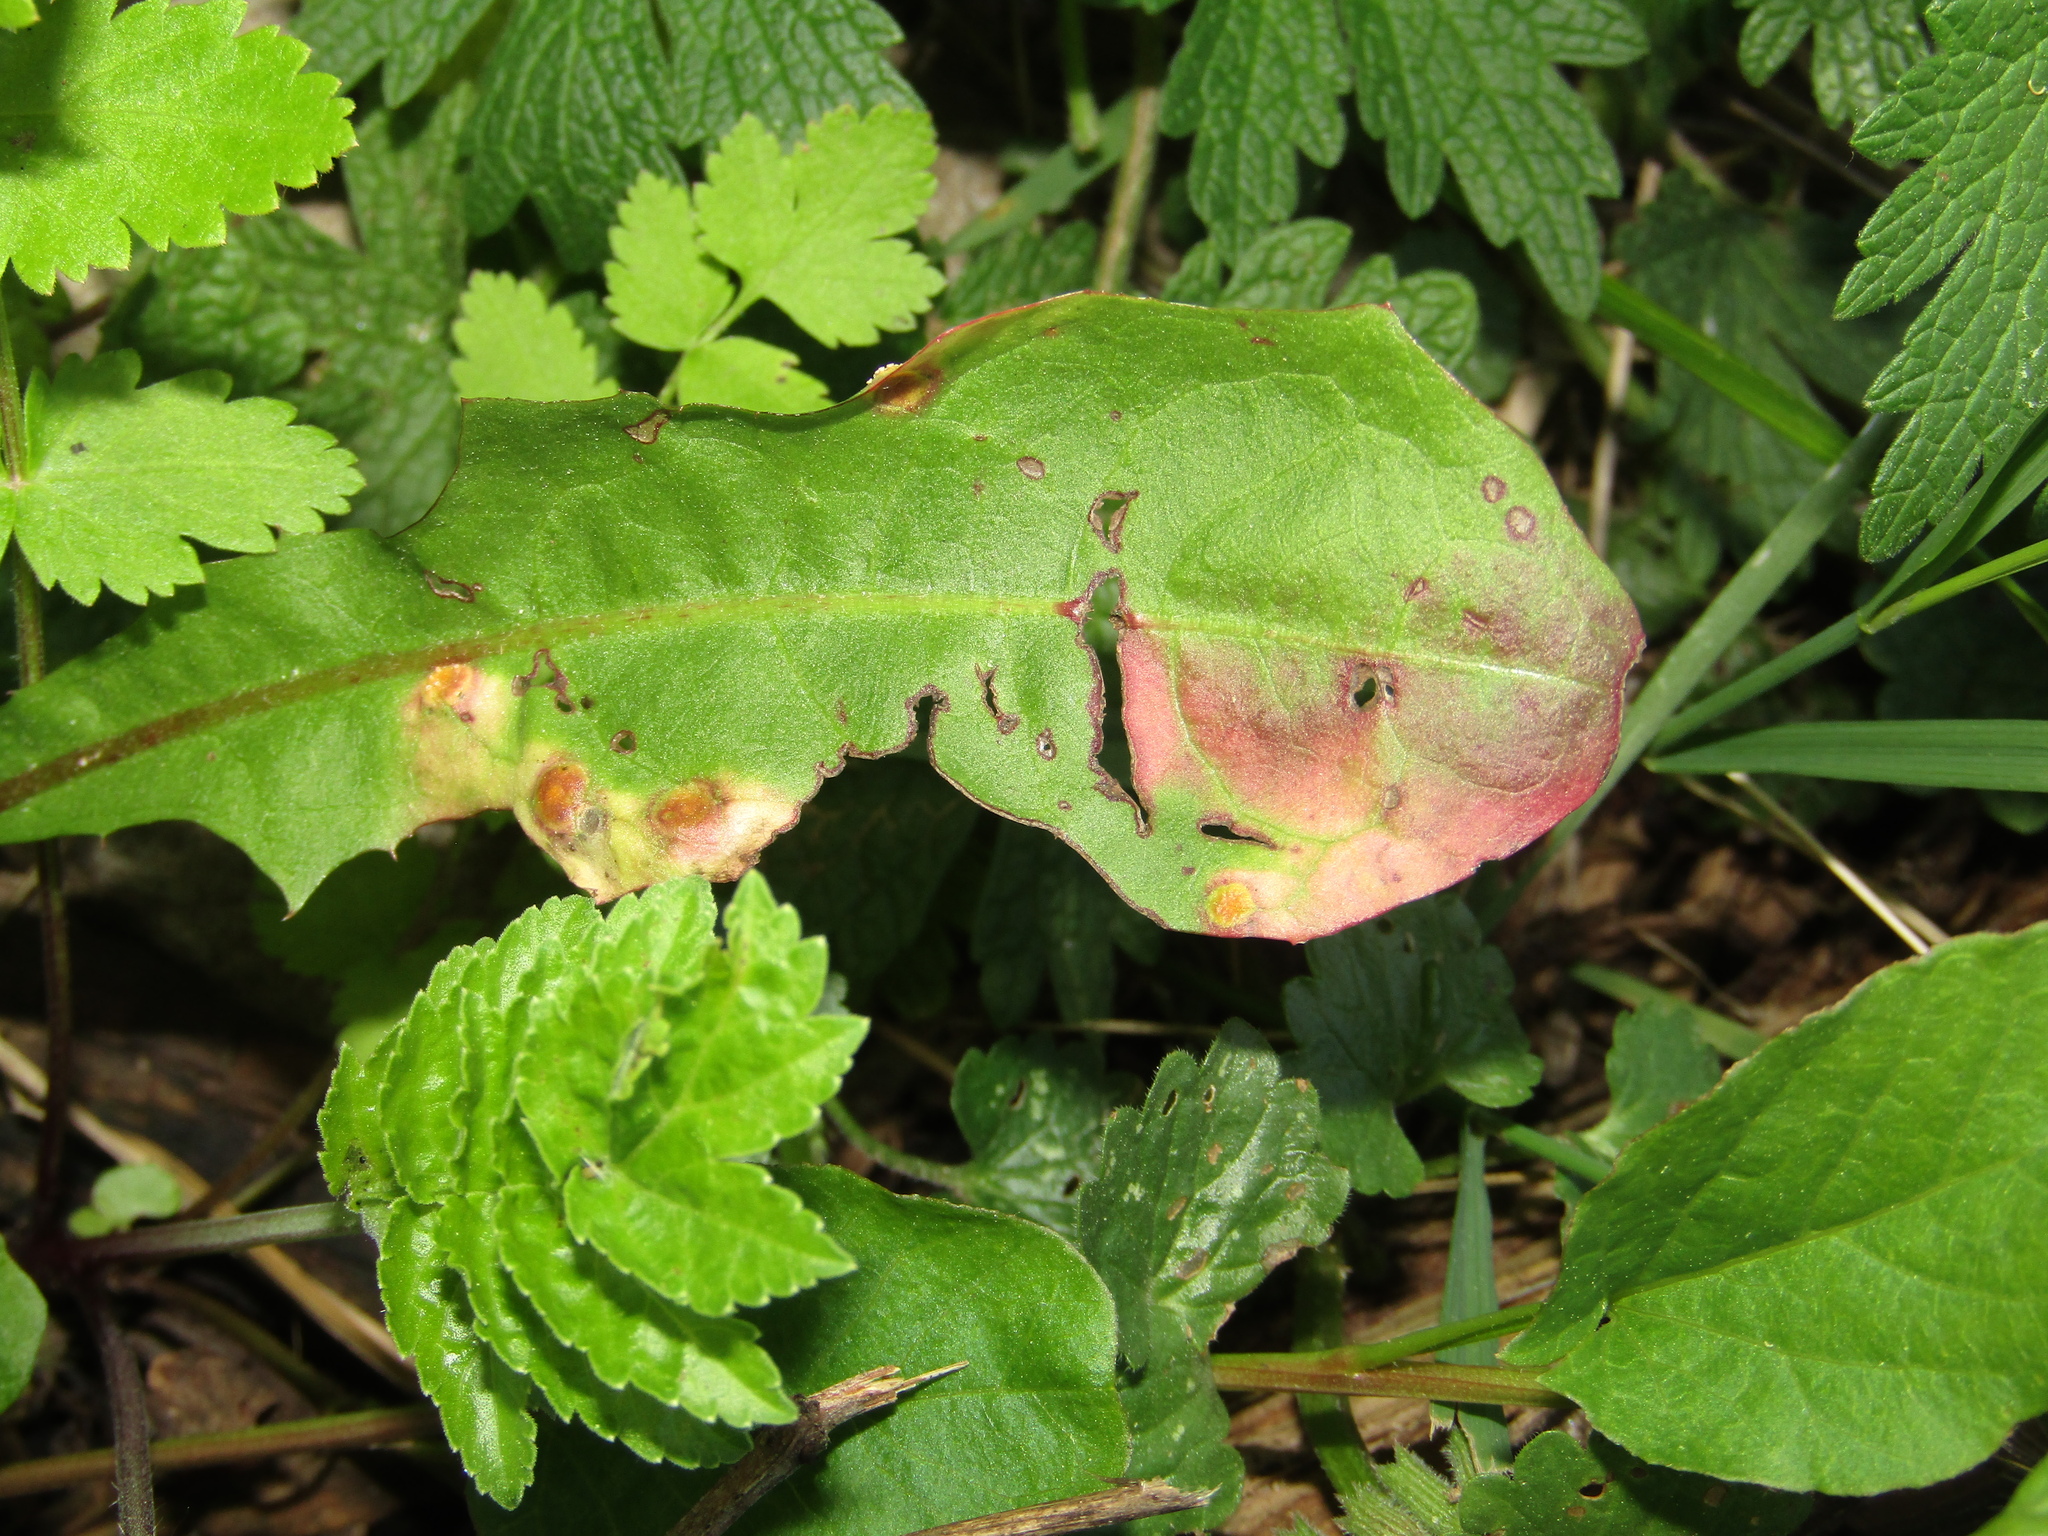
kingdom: Fungi
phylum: Basidiomycota
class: Pucciniomycetes
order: Pucciniales
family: Pucciniaceae
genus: Puccinia
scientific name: Puccinia dioicae
